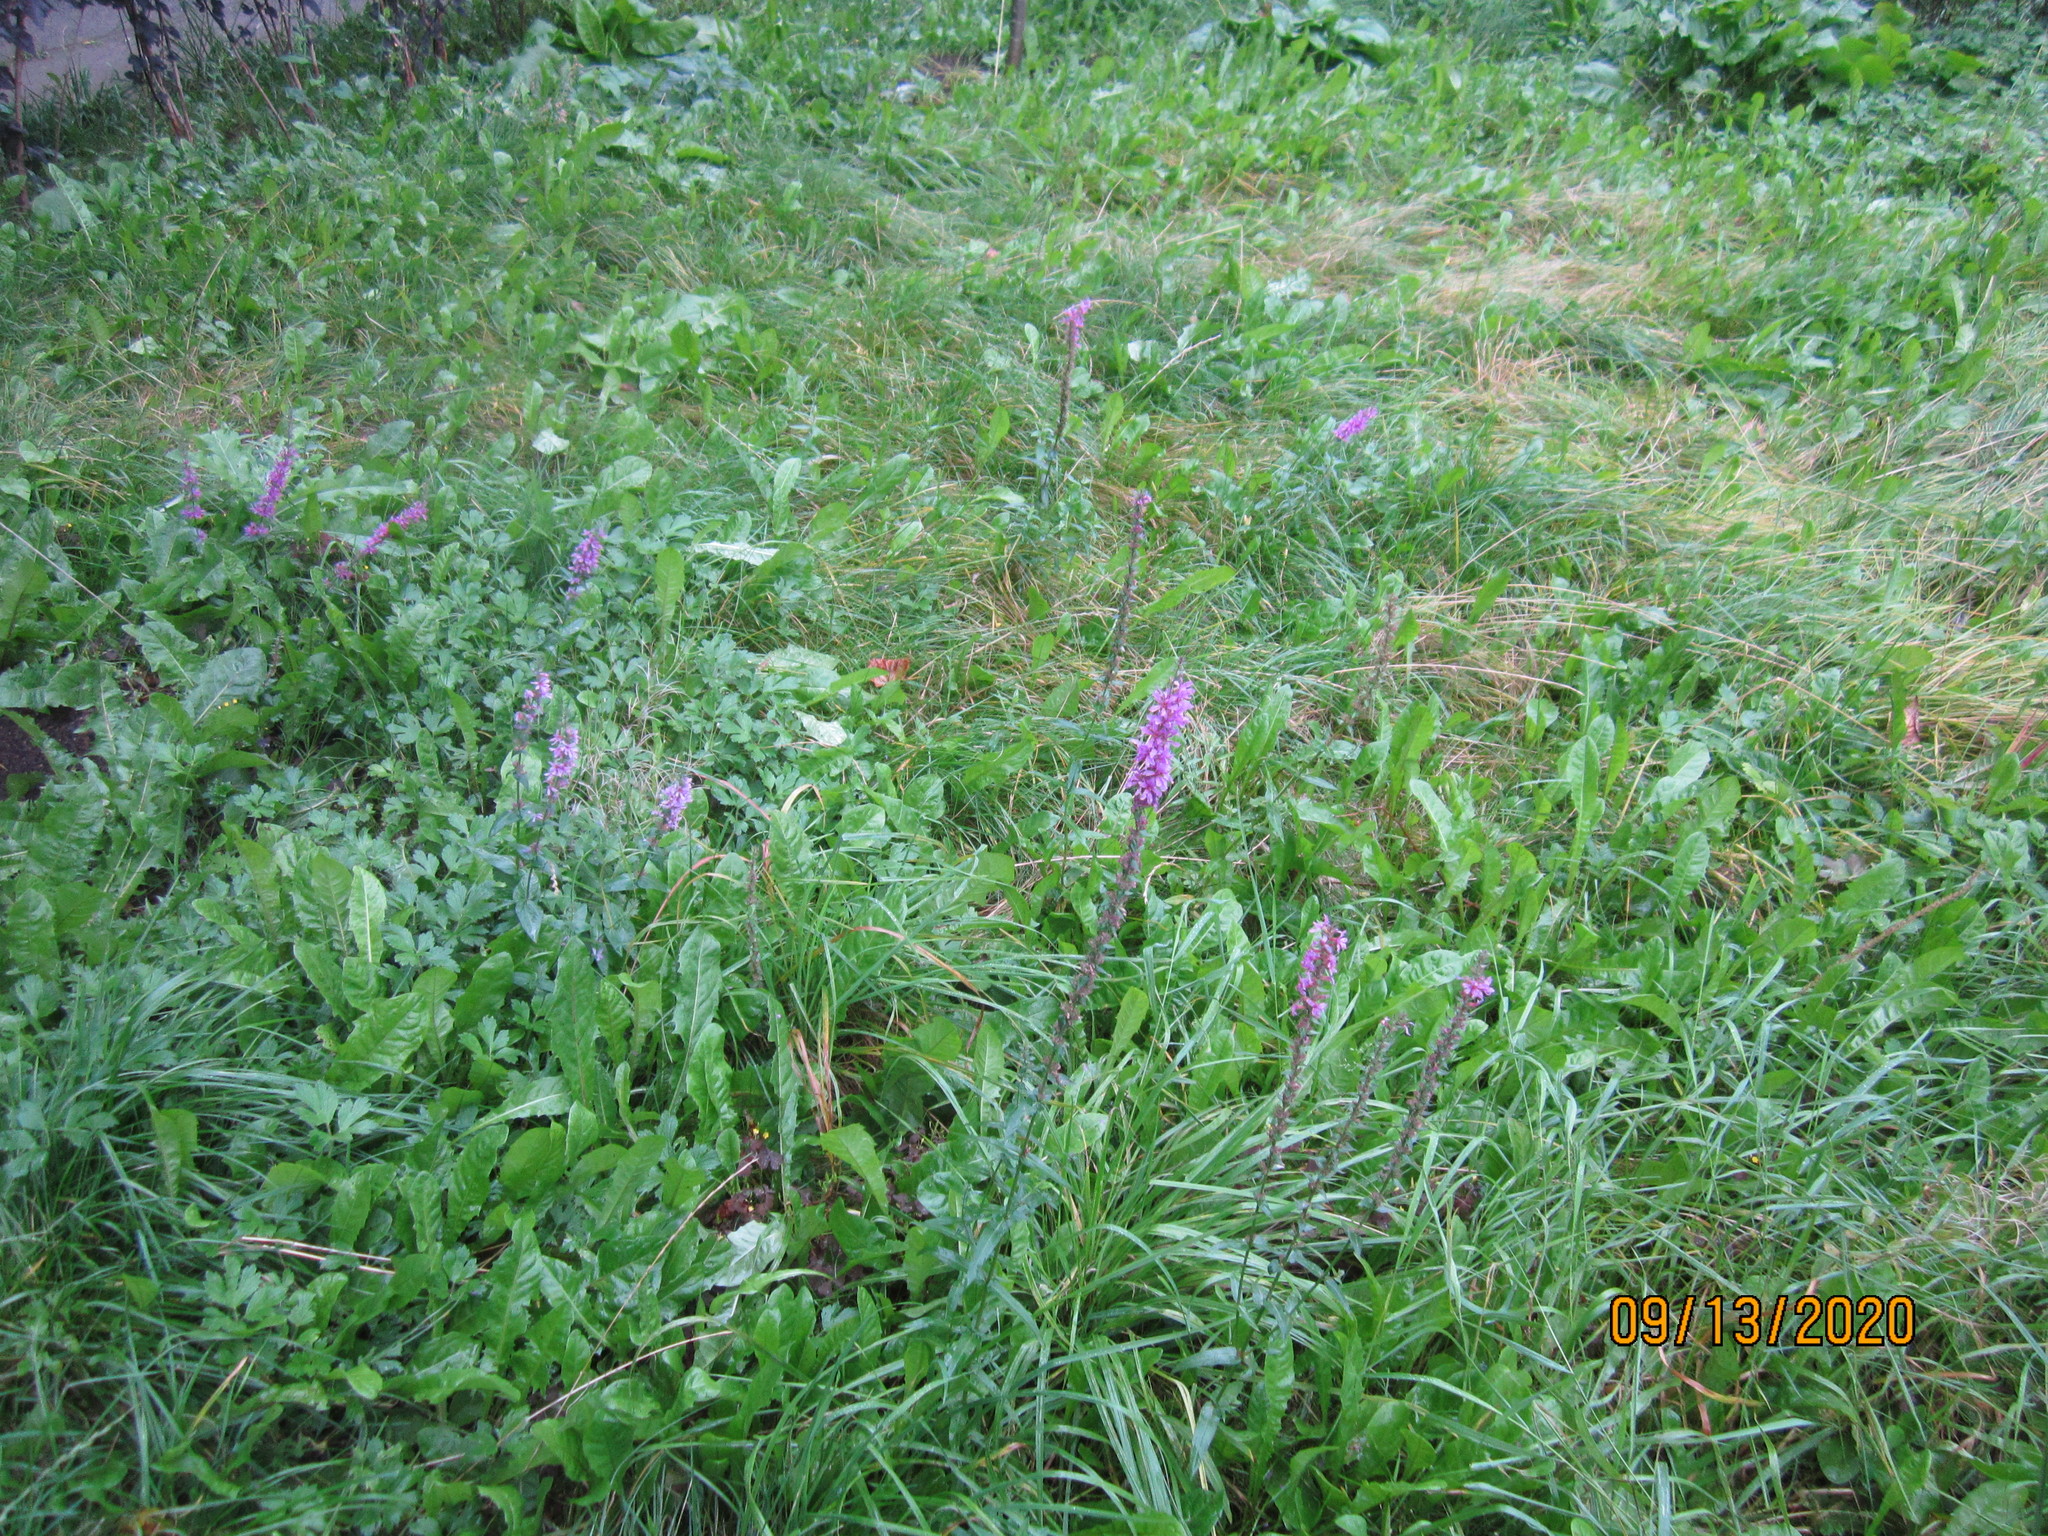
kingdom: Plantae
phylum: Tracheophyta
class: Magnoliopsida
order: Myrtales
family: Lythraceae
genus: Lythrum
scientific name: Lythrum salicaria
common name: Purple loosestrife
